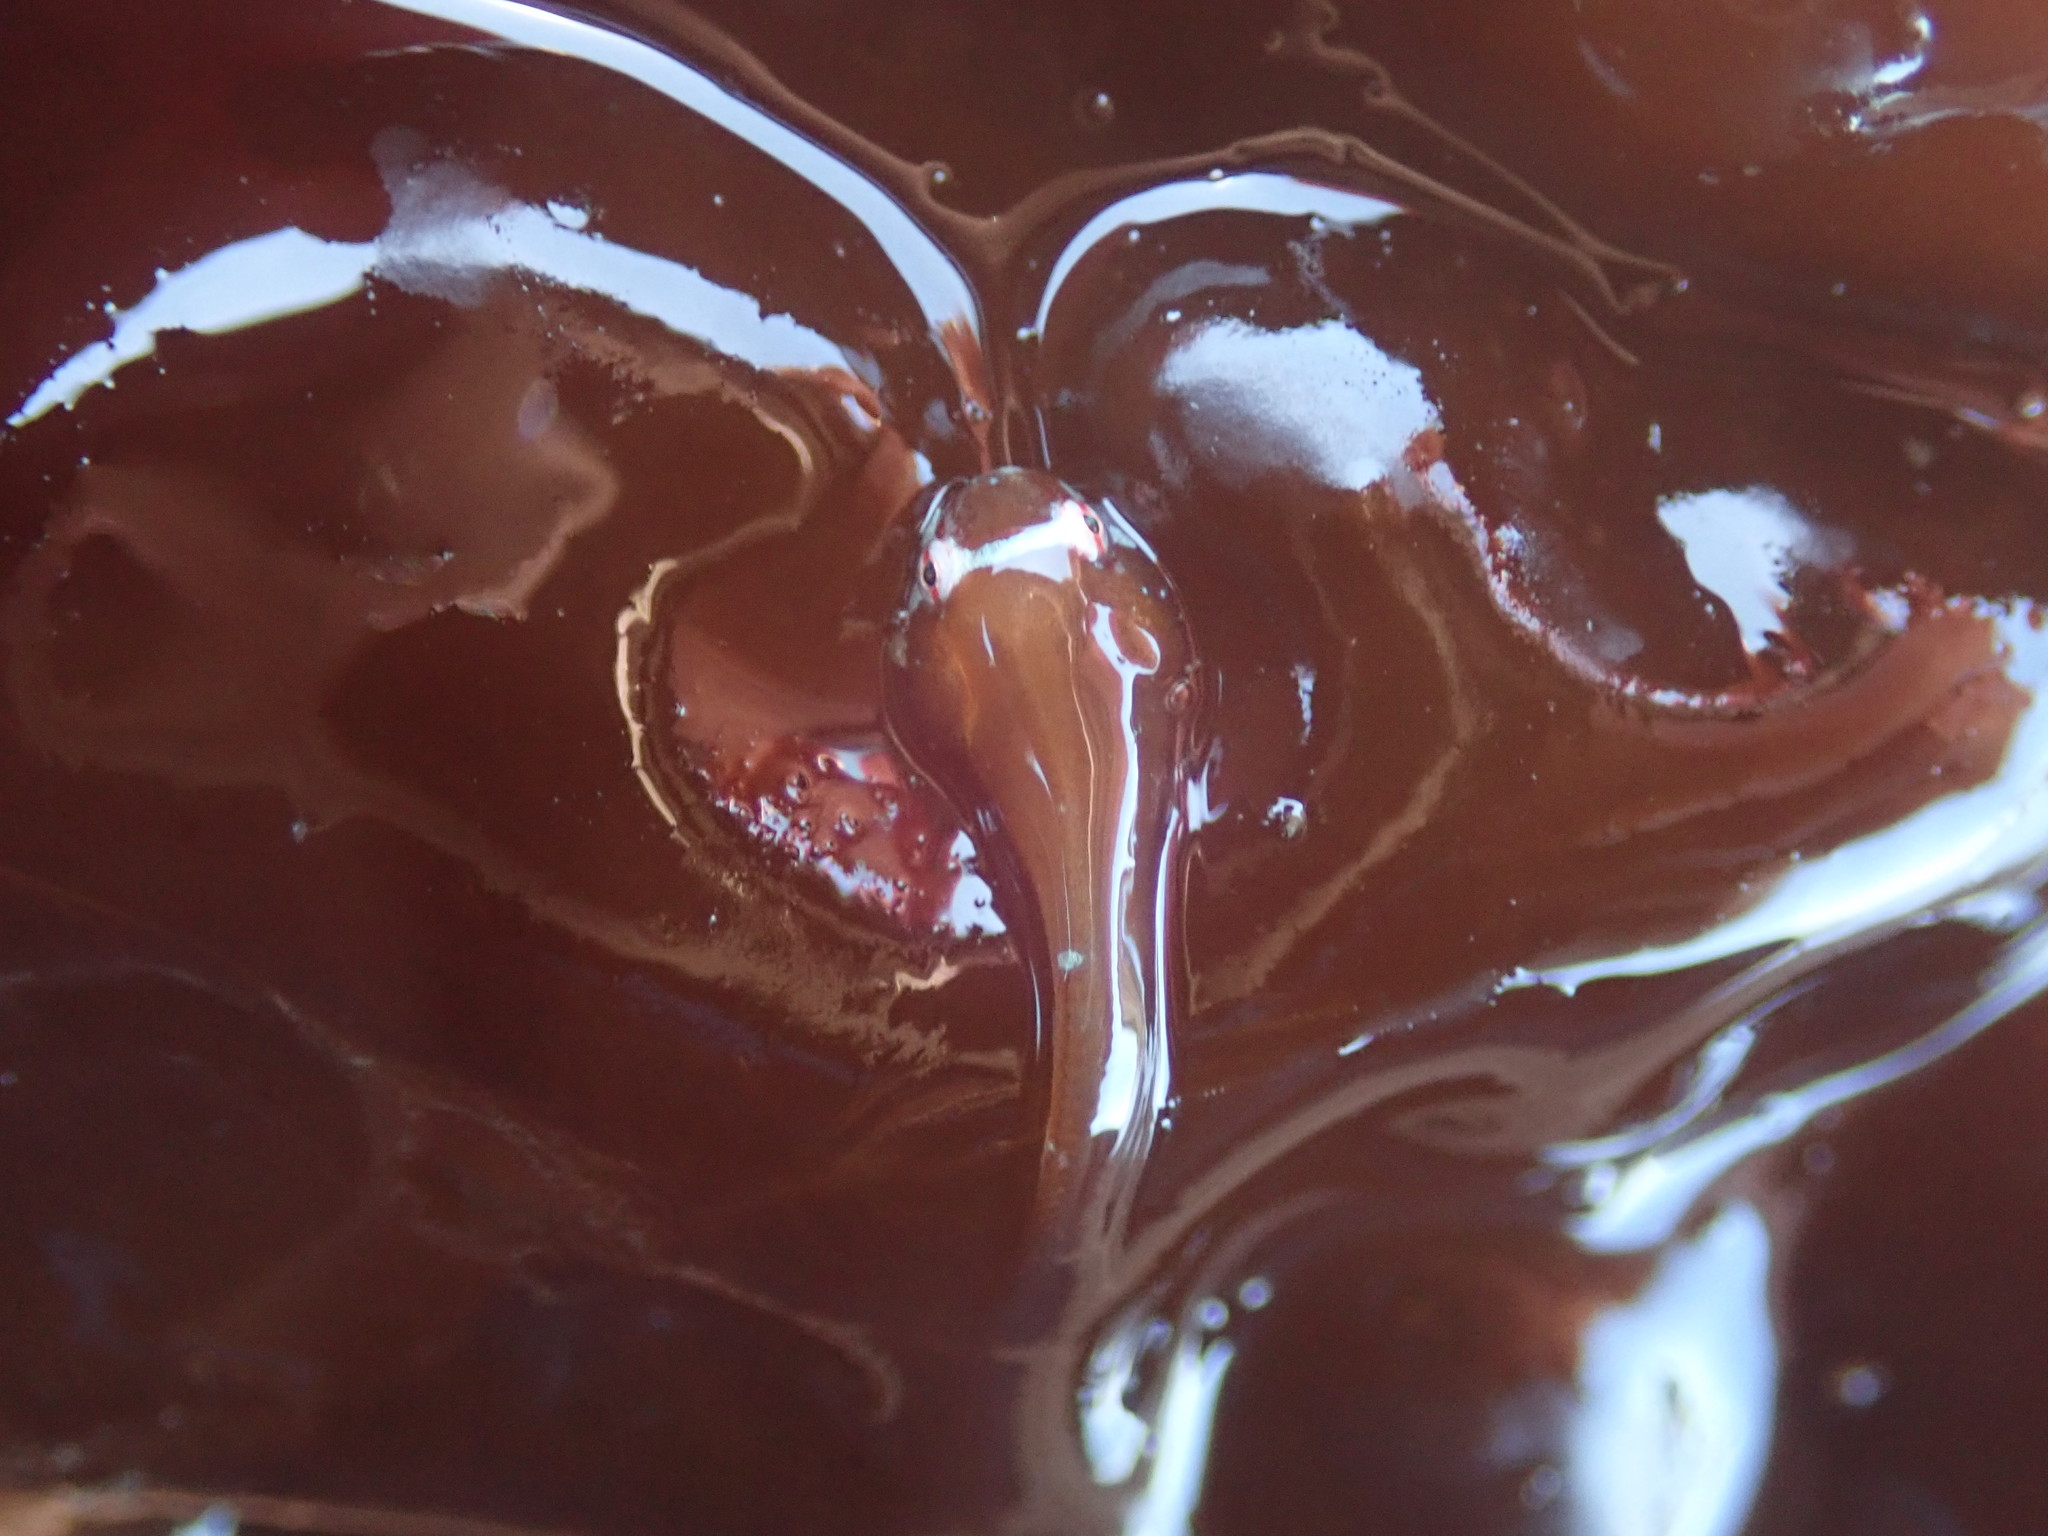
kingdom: Animalia
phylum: Chordata
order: Gobiesociformes
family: Gobiesocidae
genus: Gobiesox
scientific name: Gobiesox maeandricus
